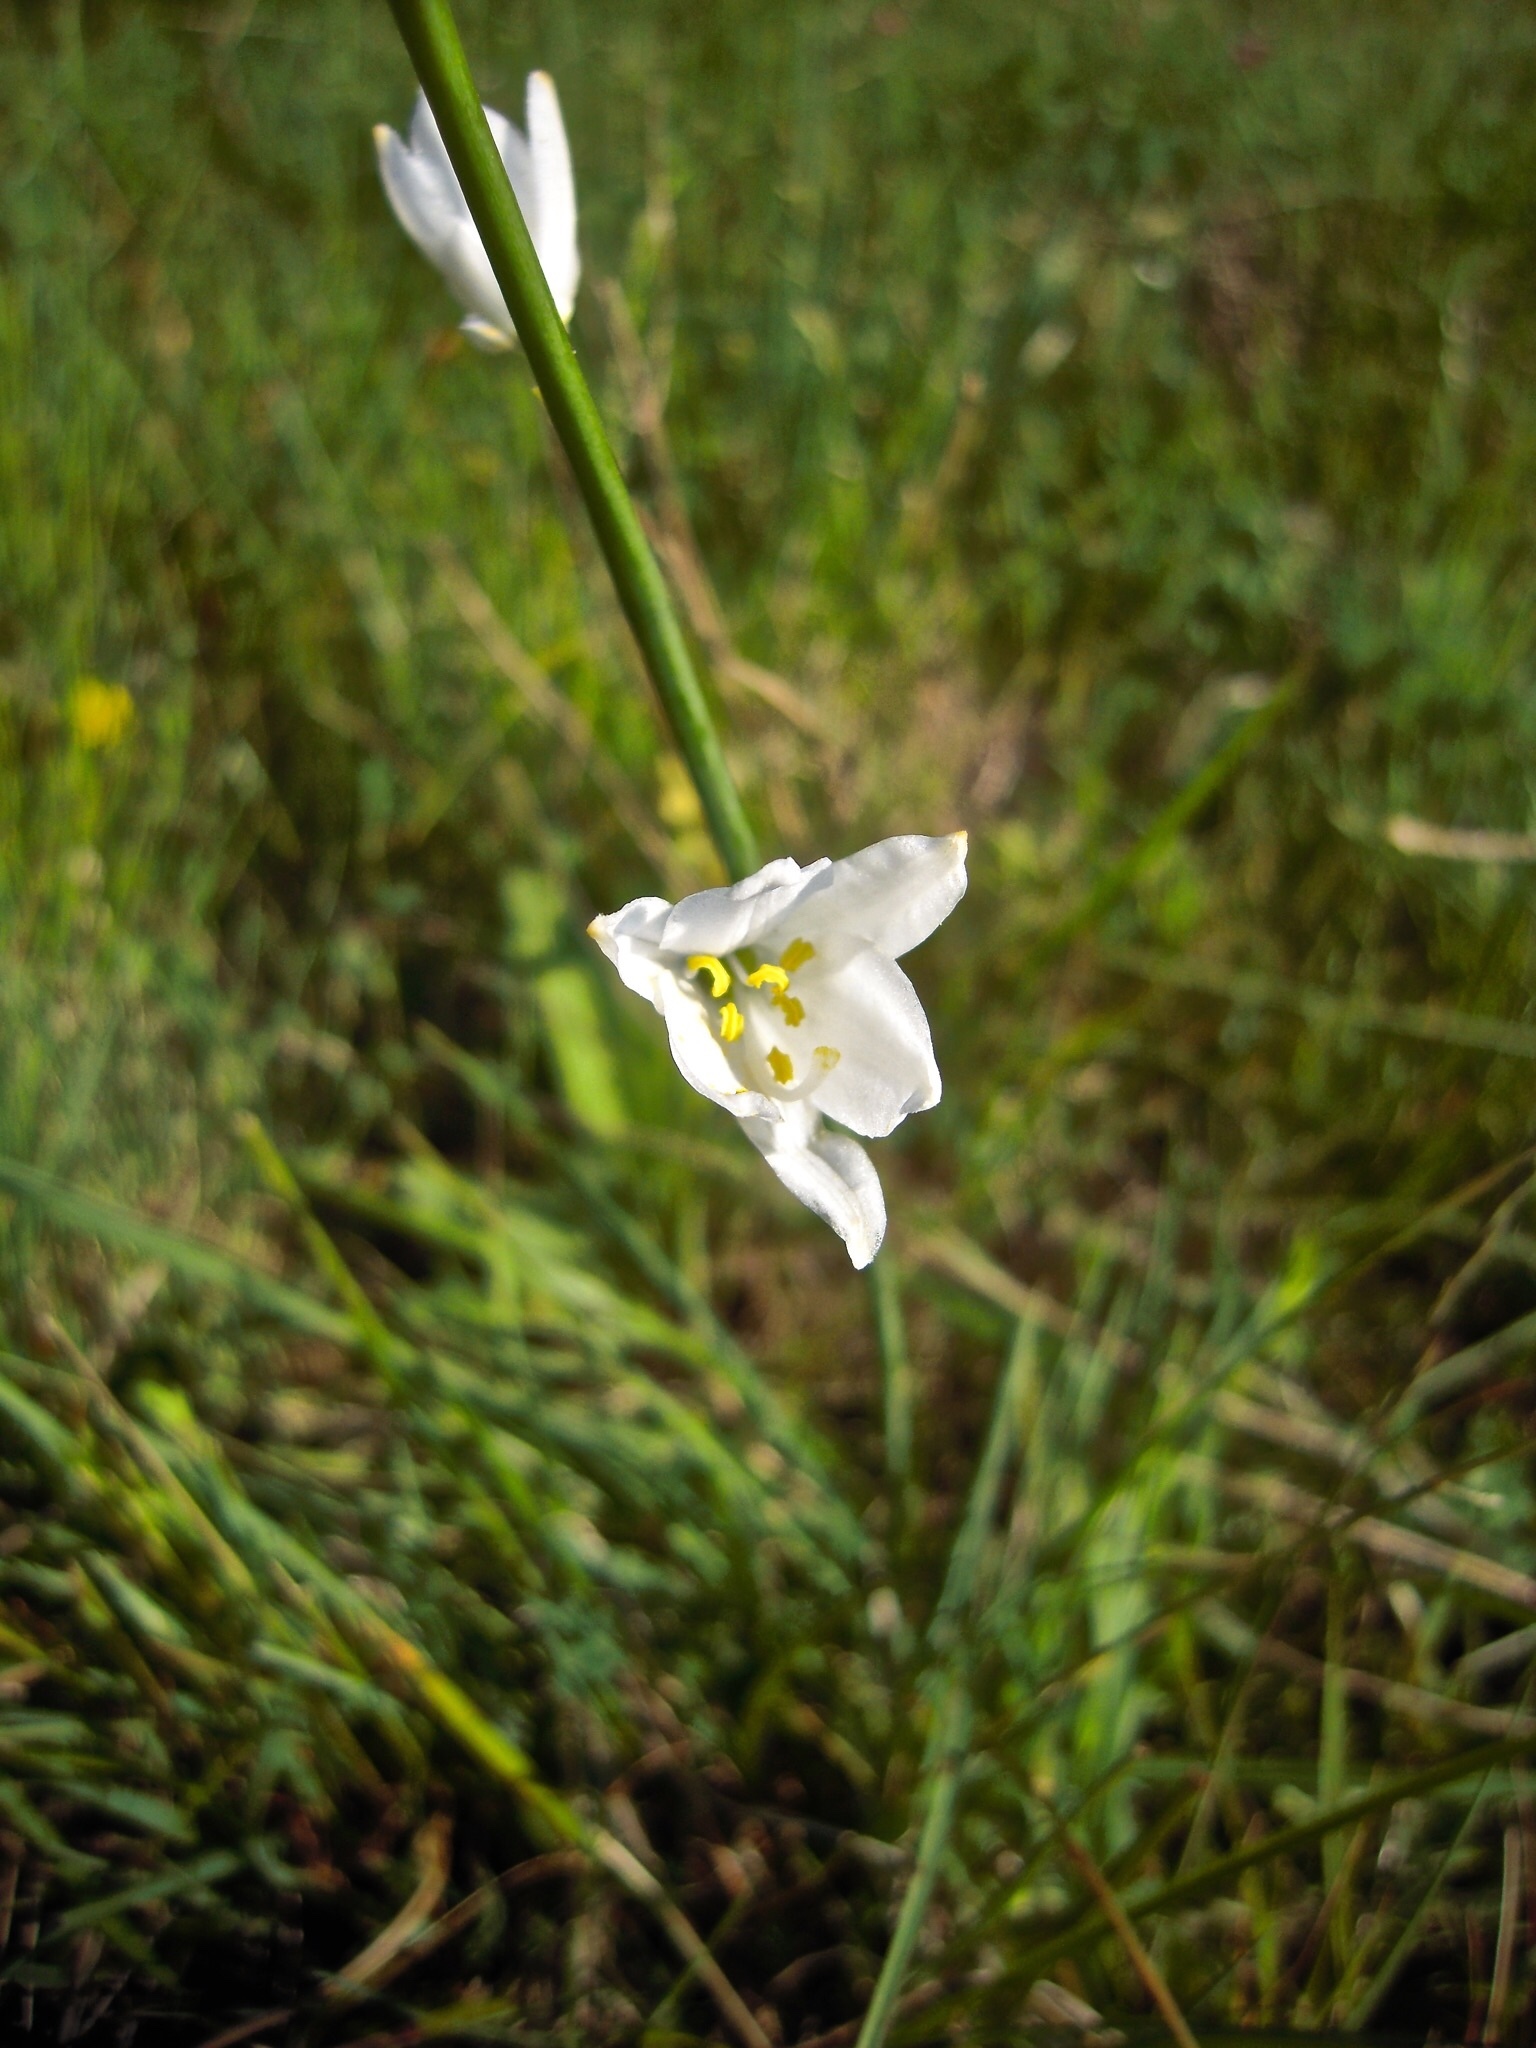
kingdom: Plantae
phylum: Tracheophyta
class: Liliopsida
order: Asparagales
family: Asparagaceae
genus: Paradisea
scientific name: Paradisea liliastrum
